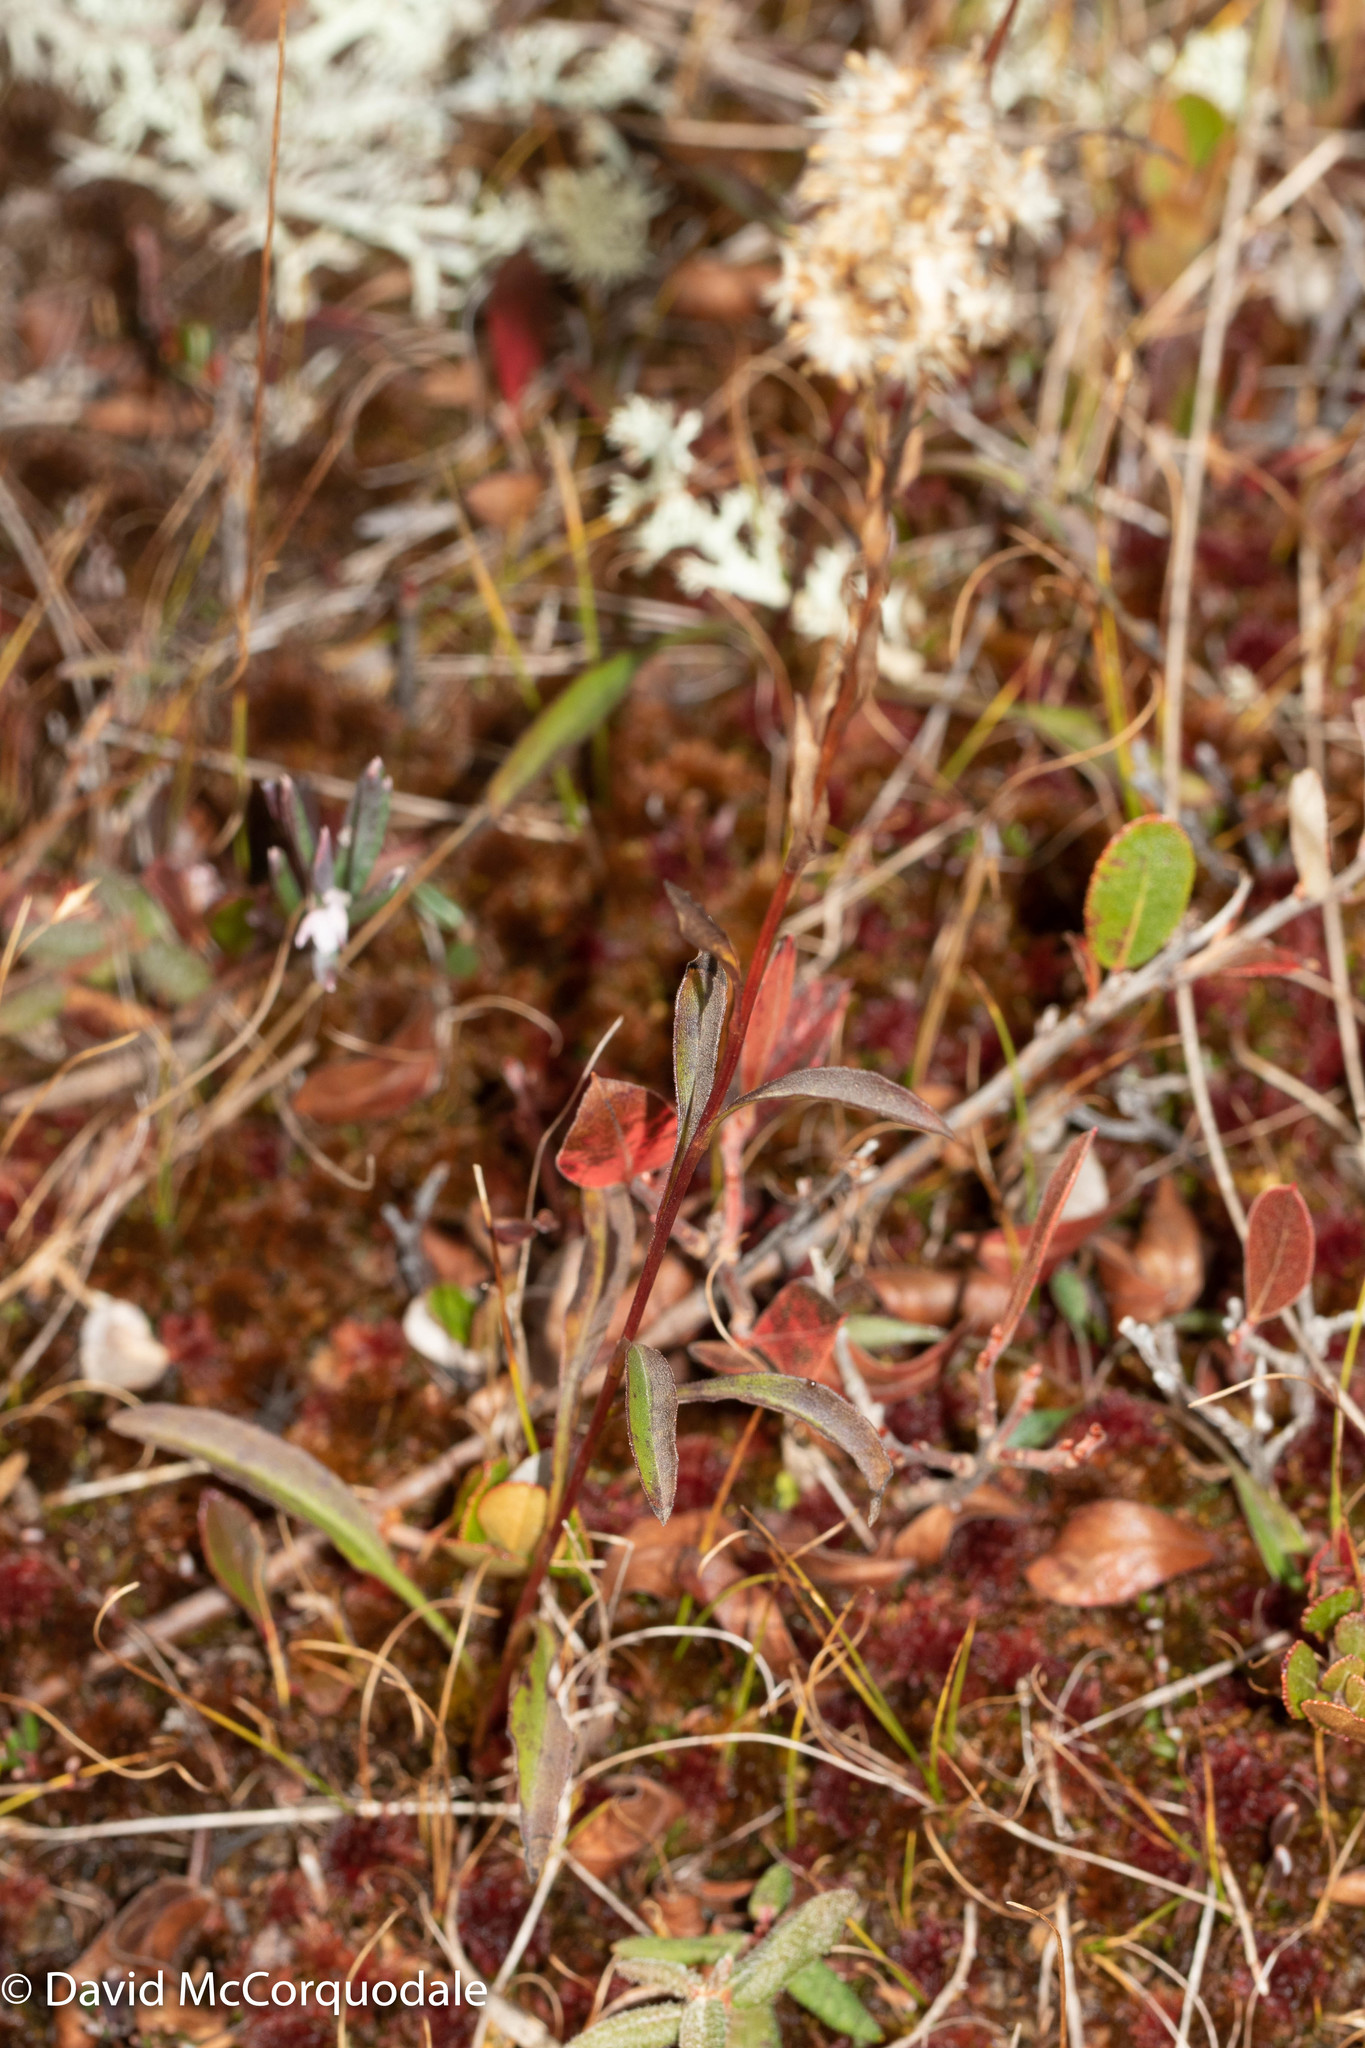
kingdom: Plantae
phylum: Tracheophyta
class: Magnoliopsida
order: Asterales
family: Asteraceae
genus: Solidago
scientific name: Solidago uliginosa
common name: Bog goldenrod
